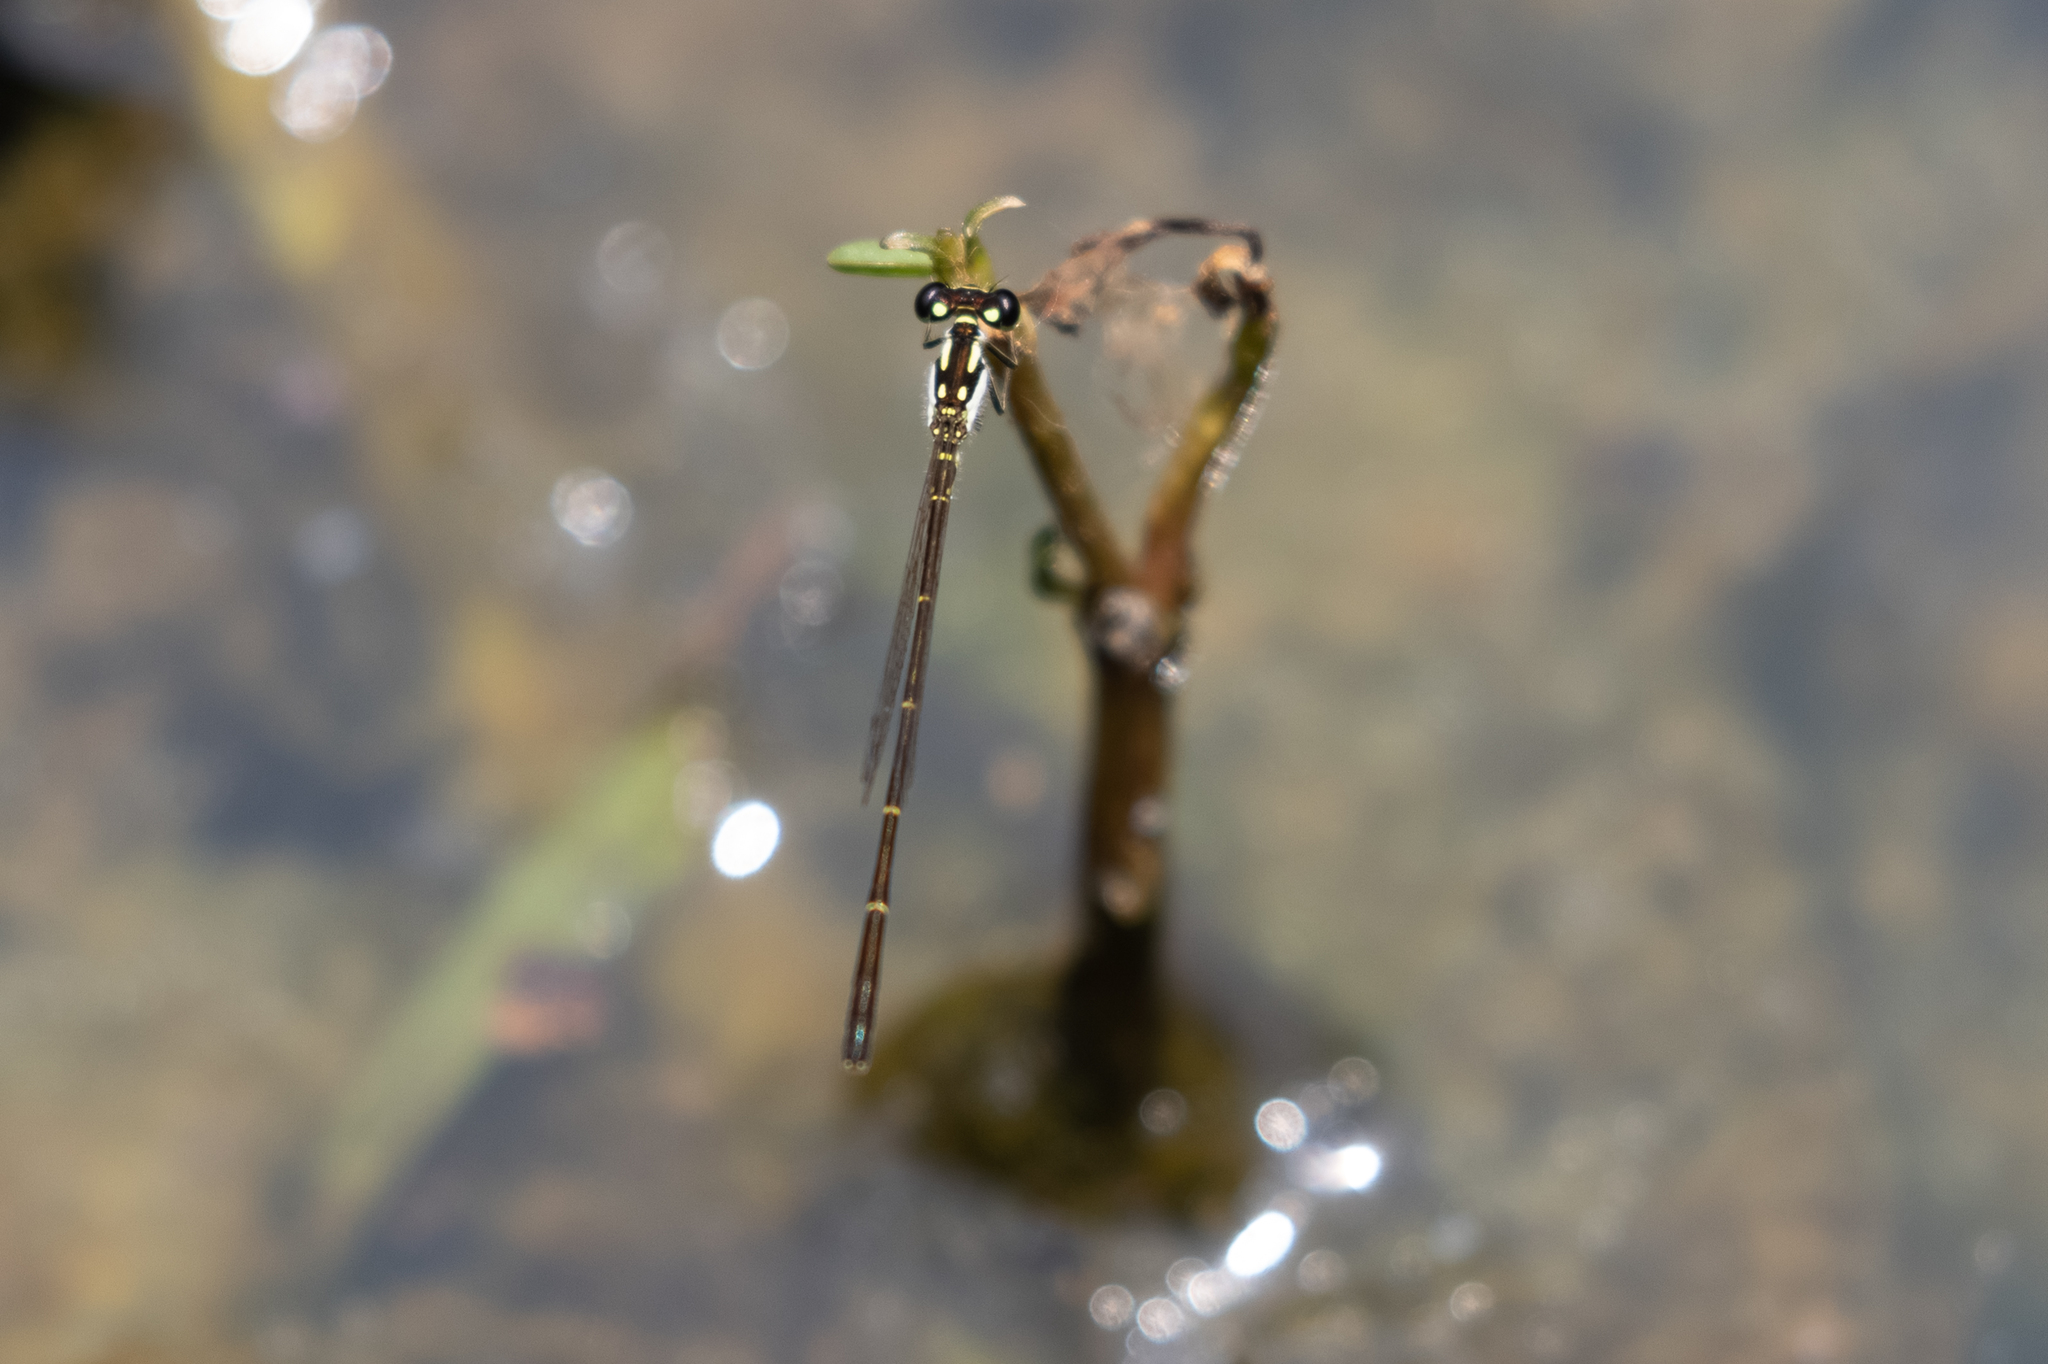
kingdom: Animalia
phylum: Arthropoda
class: Insecta
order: Odonata
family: Coenagrionidae
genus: Ischnura
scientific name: Ischnura posita
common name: Fragile forktail
